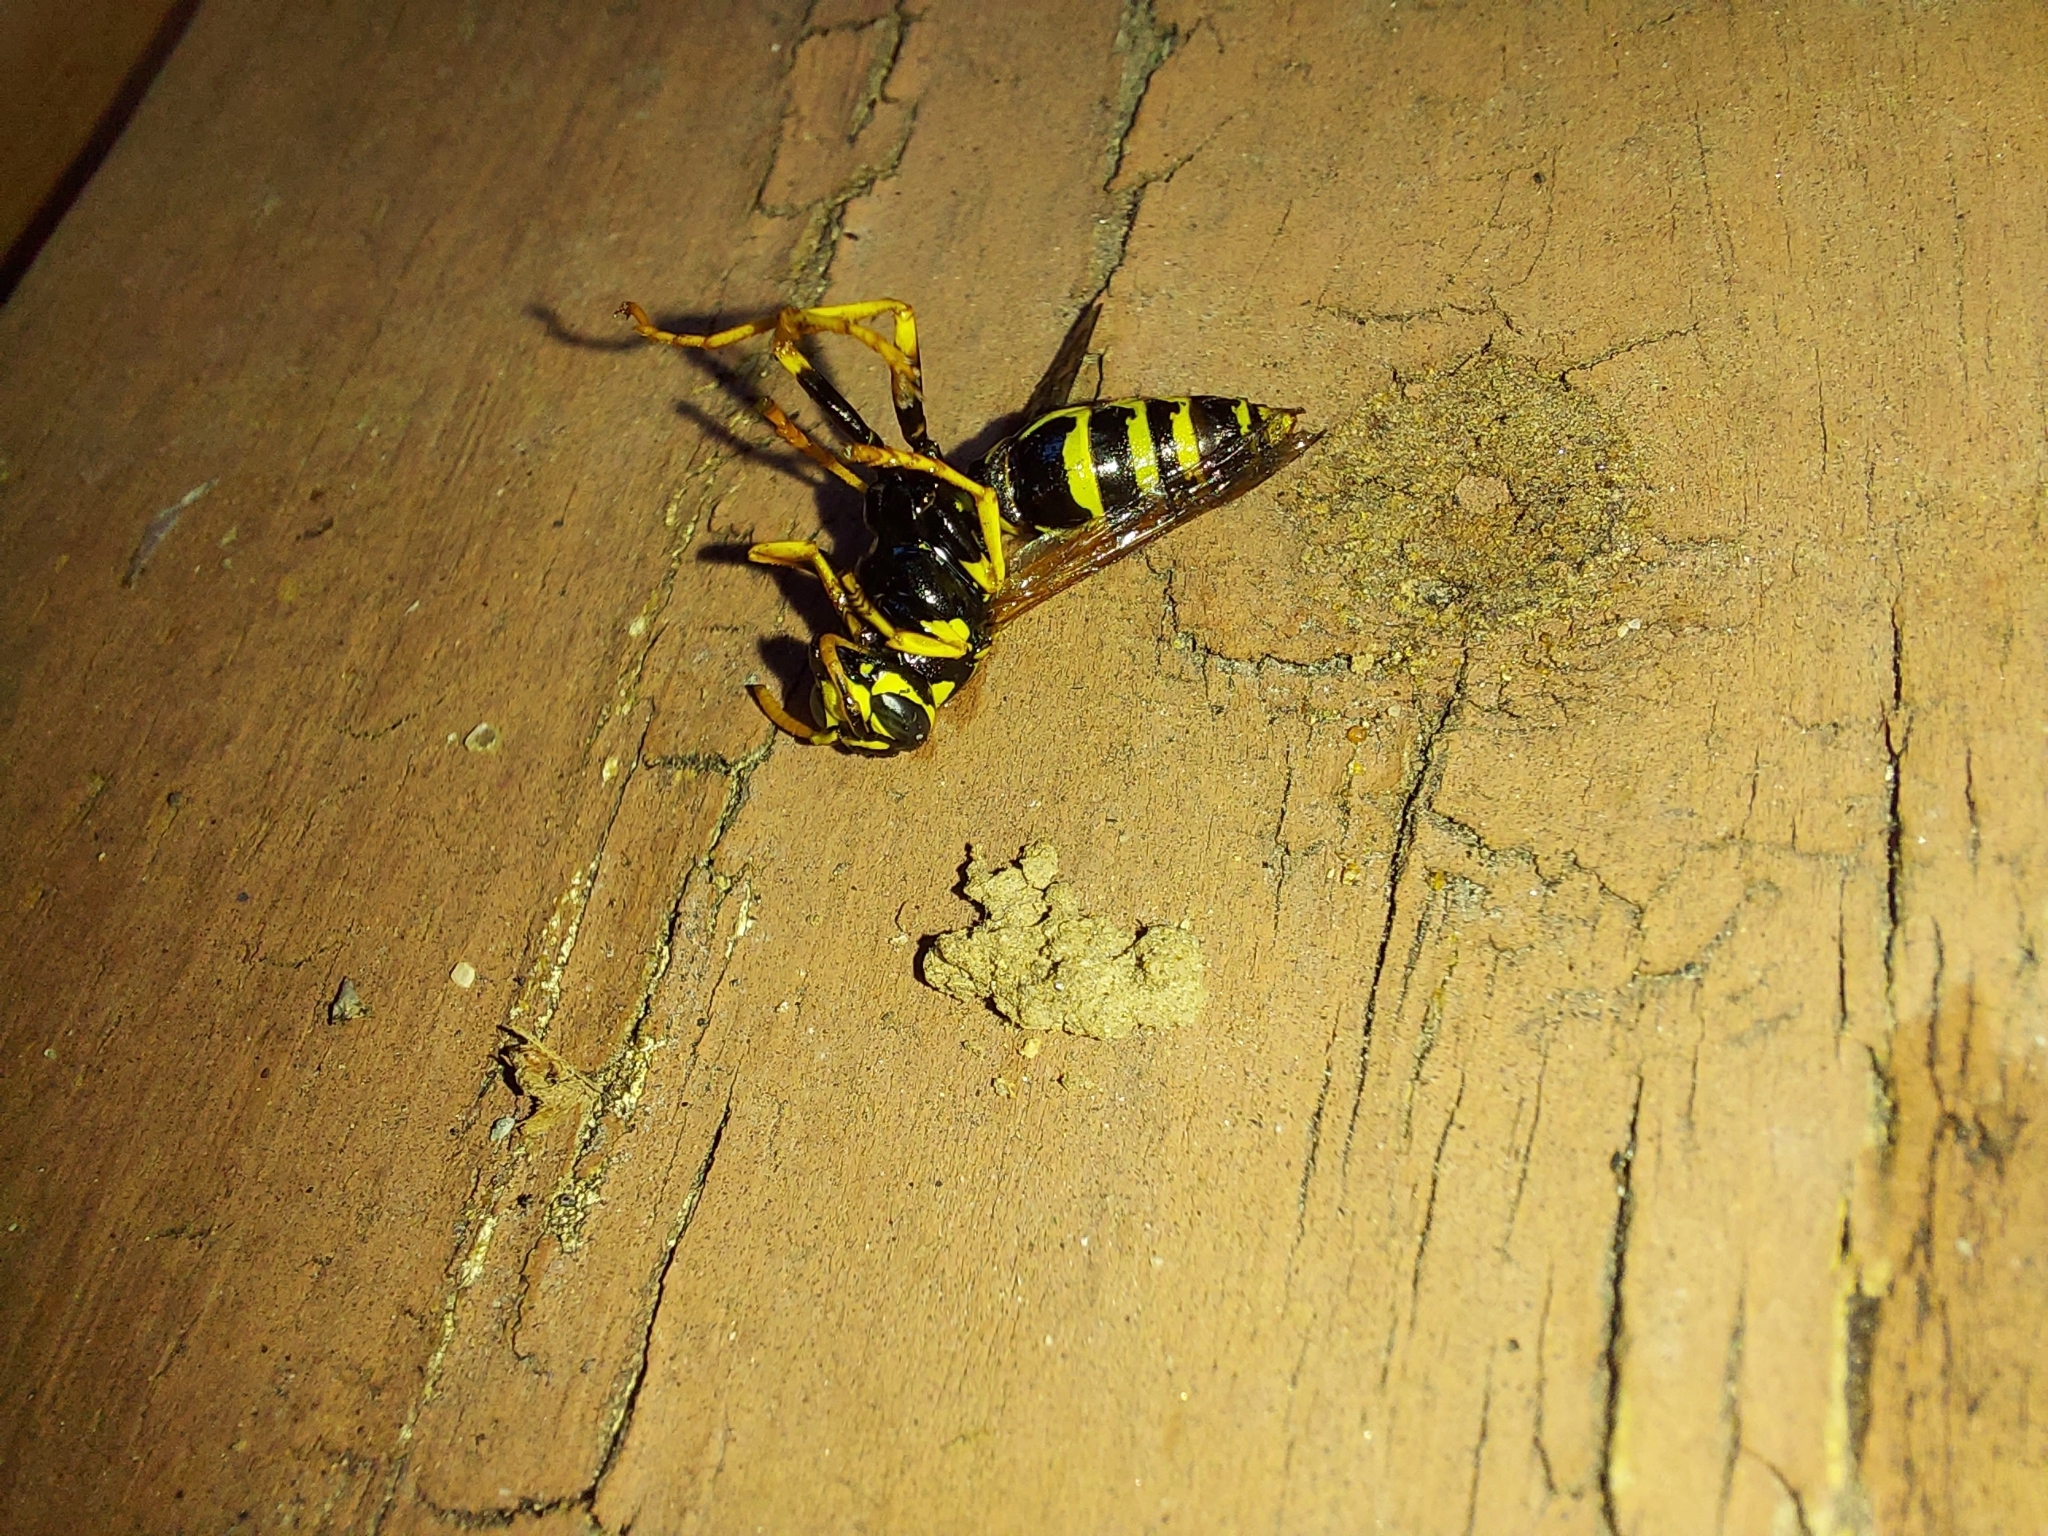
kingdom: Animalia
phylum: Arthropoda
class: Insecta
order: Hymenoptera
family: Eumenidae
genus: Polistes
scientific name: Polistes dominula
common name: Paper wasp
